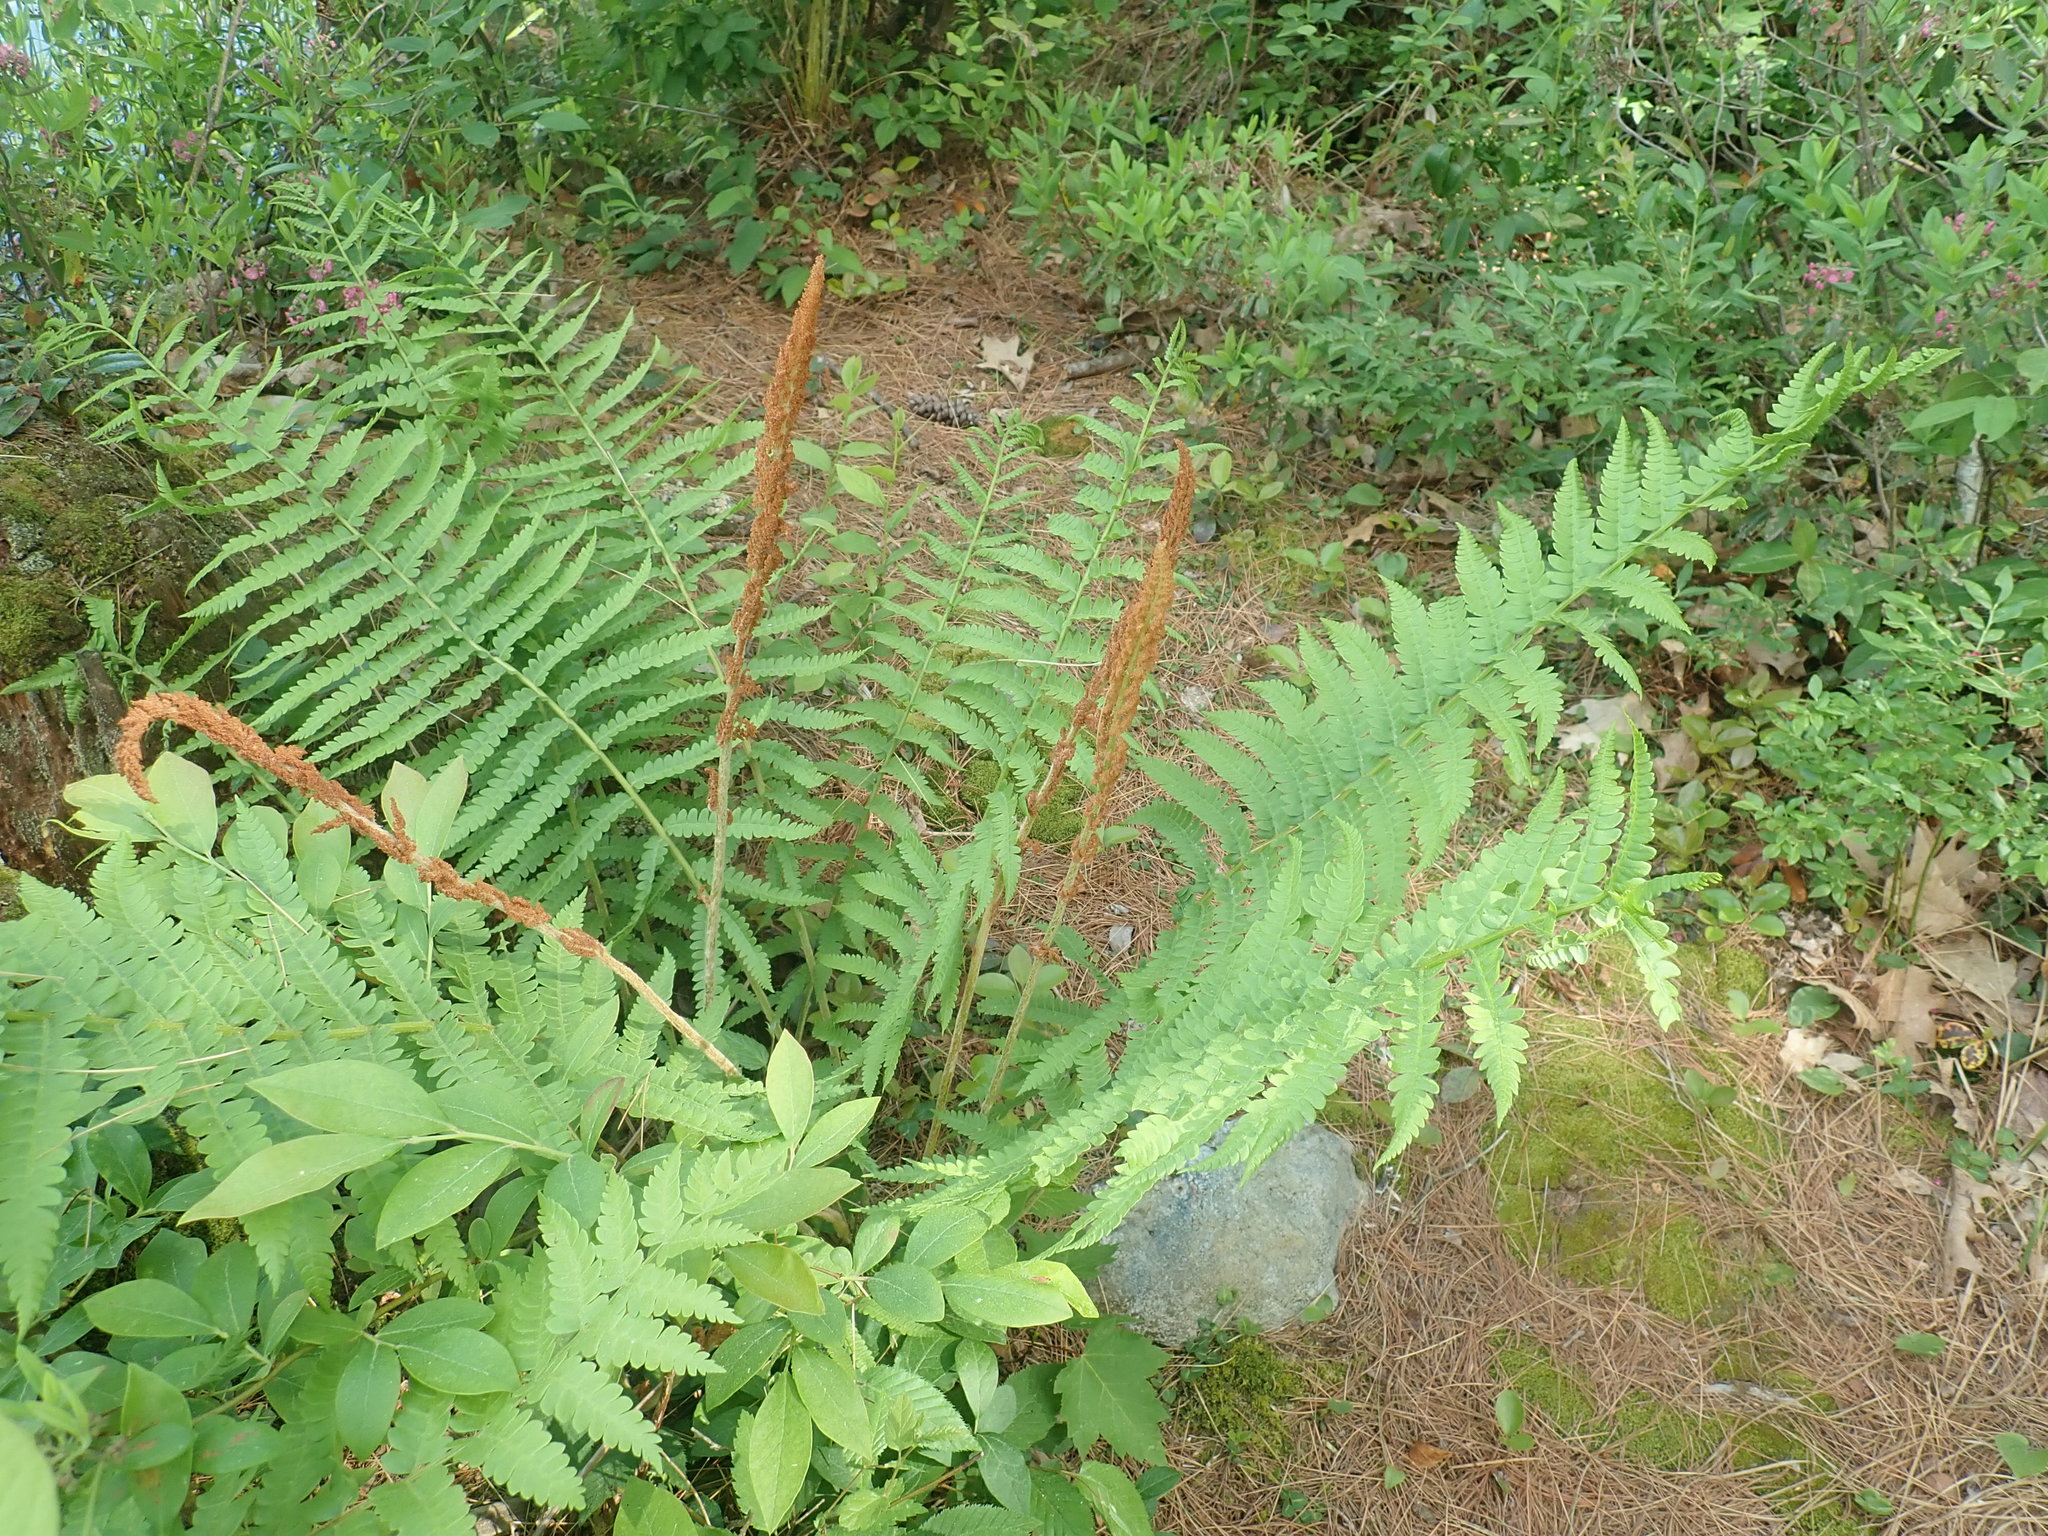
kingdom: Plantae
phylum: Tracheophyta
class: Polypodiopsida
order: Osmundales
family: Osmundaceae
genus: Osmundastrum
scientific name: Osmundastrum cinnamomeum
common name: Cinnamon fern
